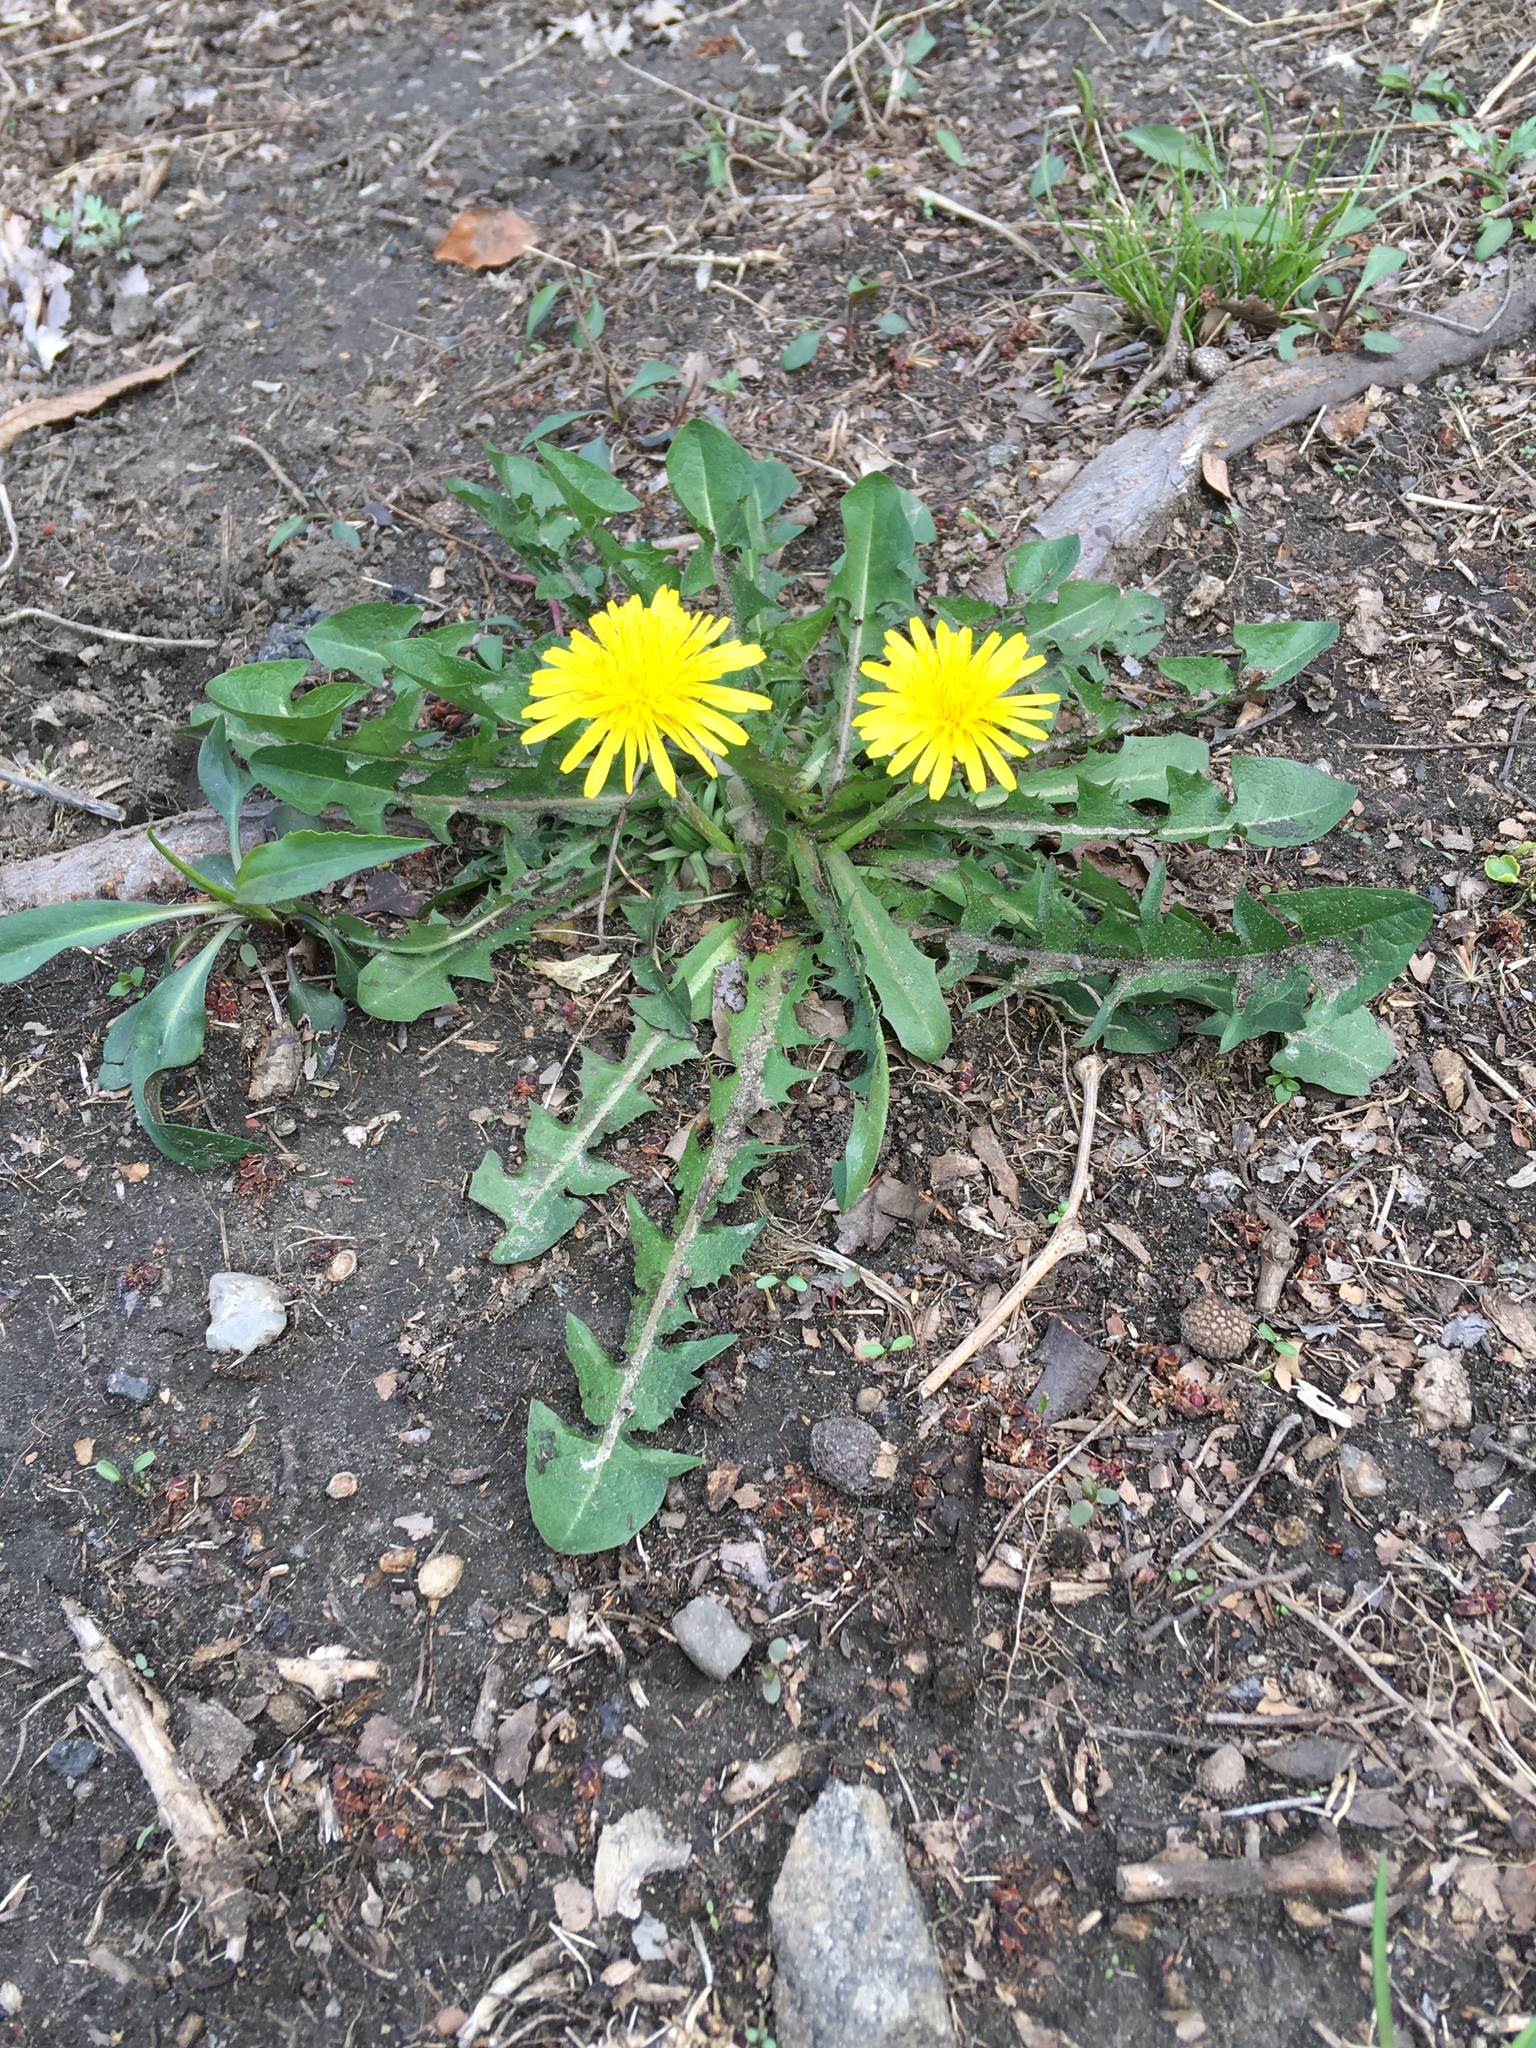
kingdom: Plantae
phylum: Tracheophyta
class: Magnoliopsida
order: Asterales
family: Asteraceae
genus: Taraxacum
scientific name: Taraxacum officinale
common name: Common dandelion
